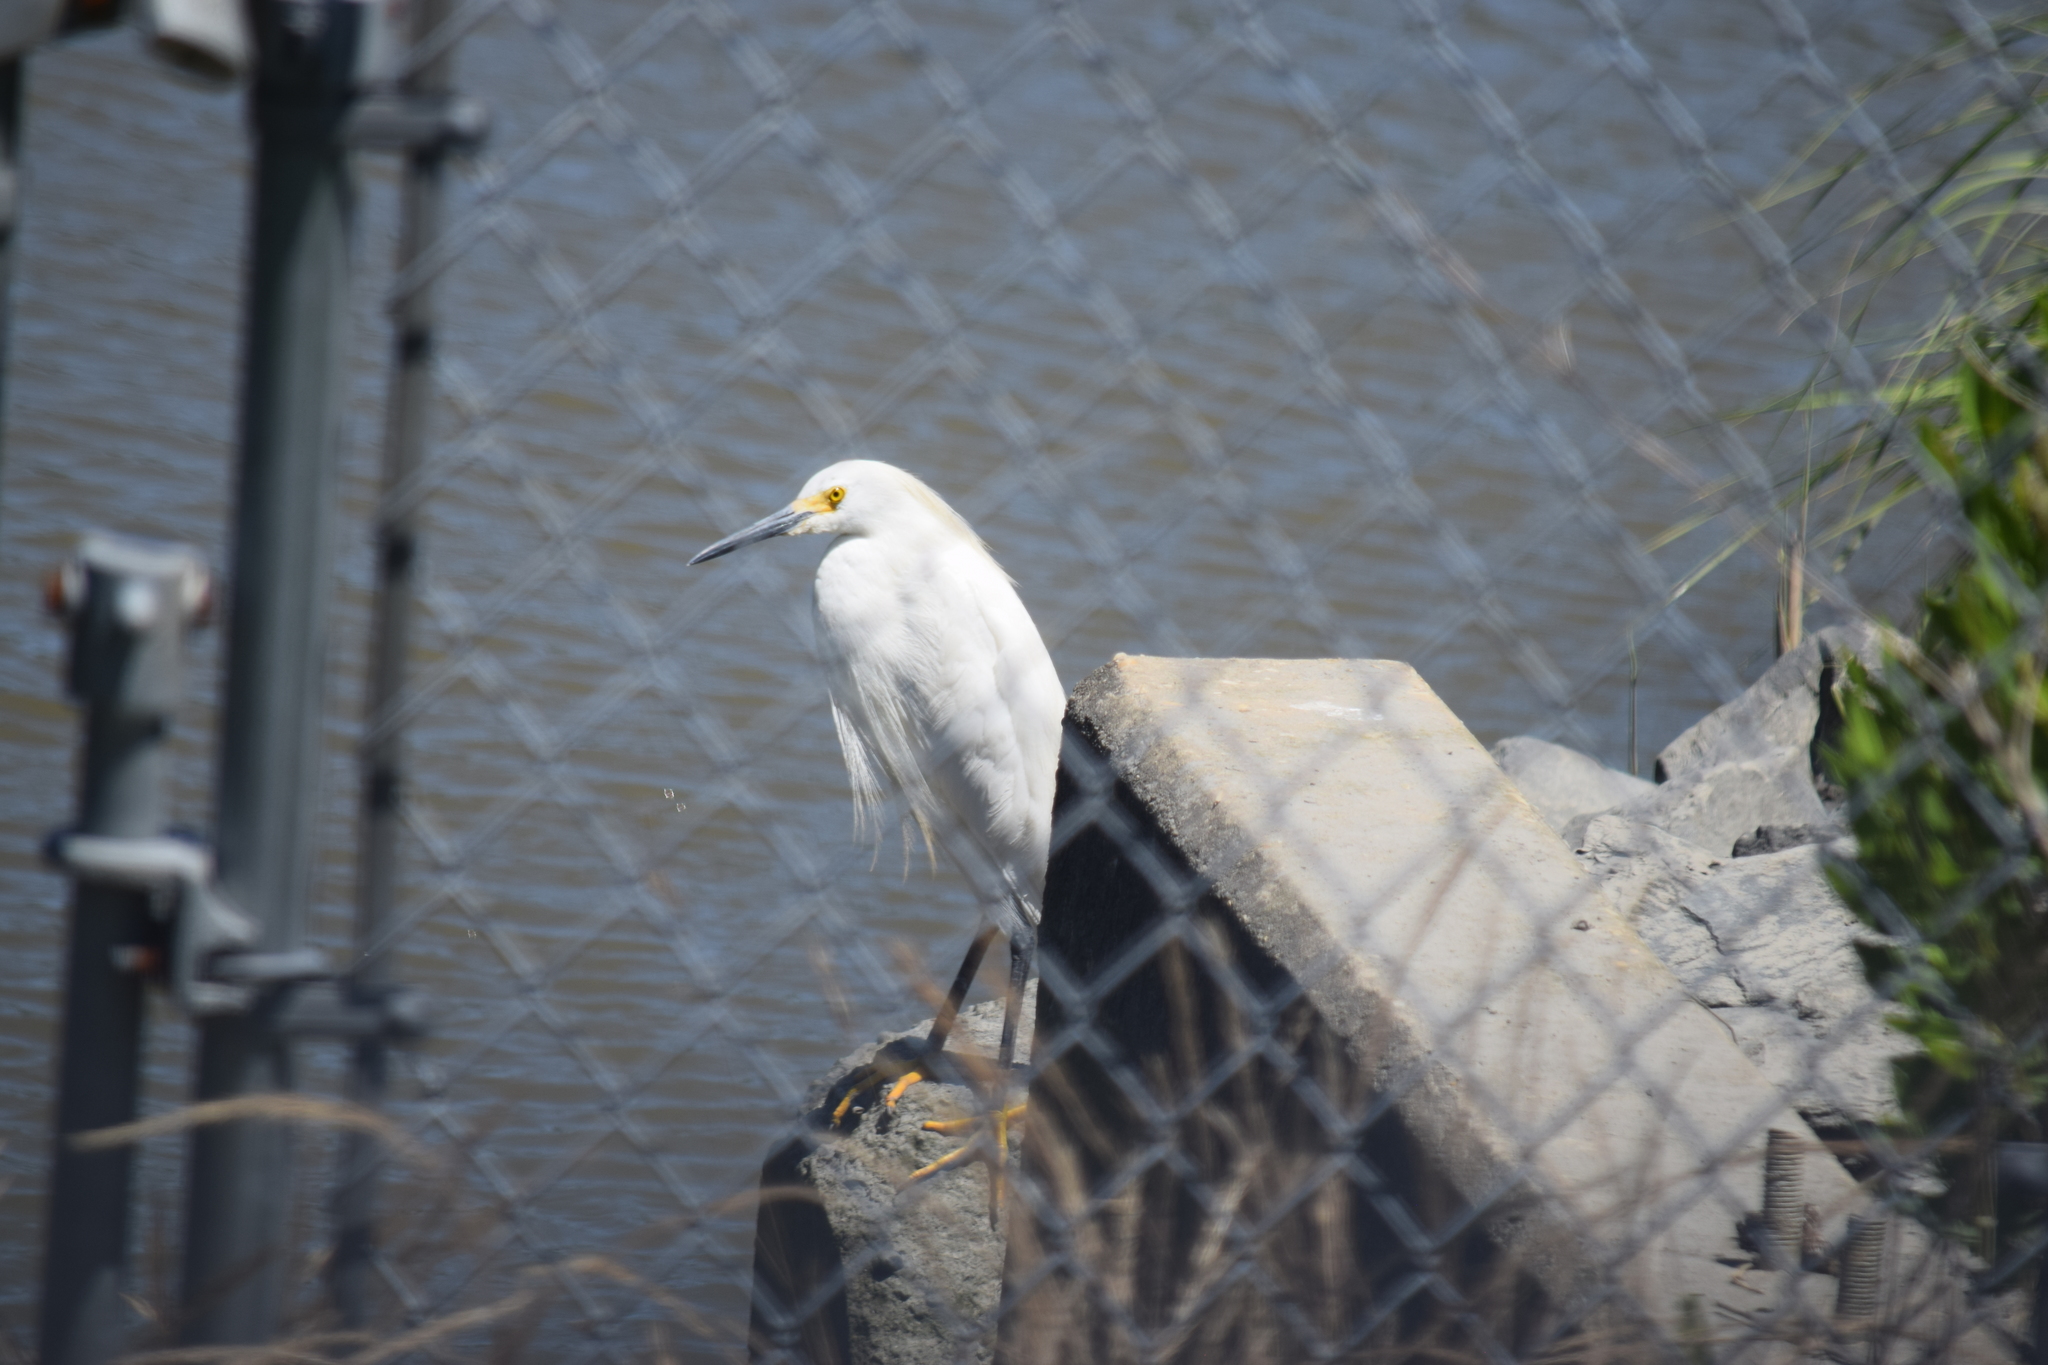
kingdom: Animalia
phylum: Chordata
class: Aves
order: Pelecaniformes
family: Ardeidae
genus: Egretta
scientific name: Egretta thula
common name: Snowy egret
